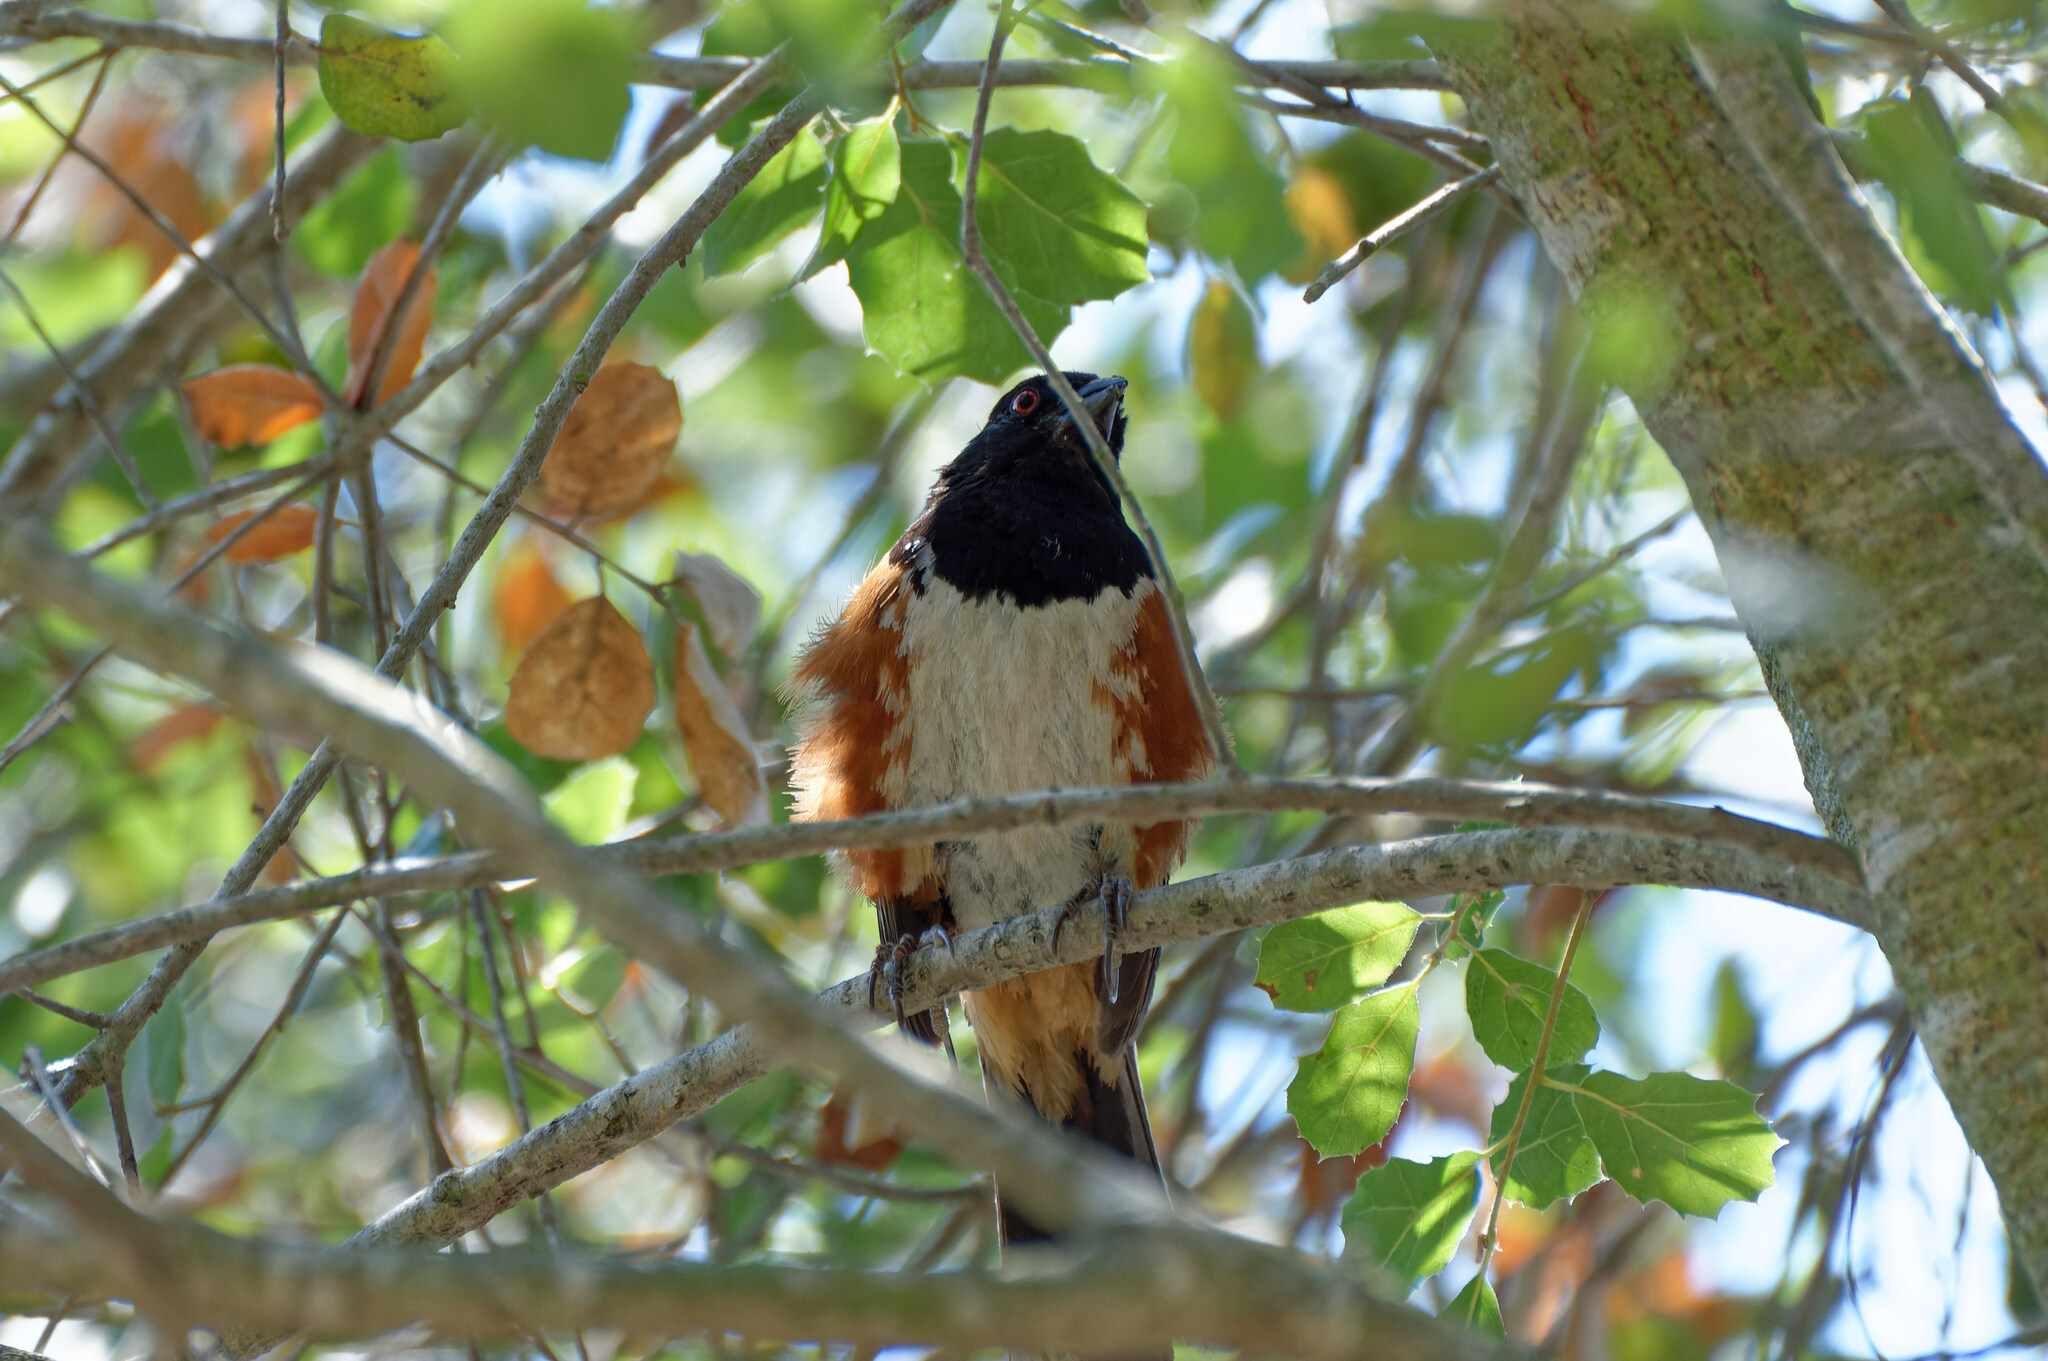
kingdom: Animalia
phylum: Chordata
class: Aves
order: Passeriformes
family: Passerellidae
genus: Pipilo
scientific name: Pipilo maculatus
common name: Spotted towhee
